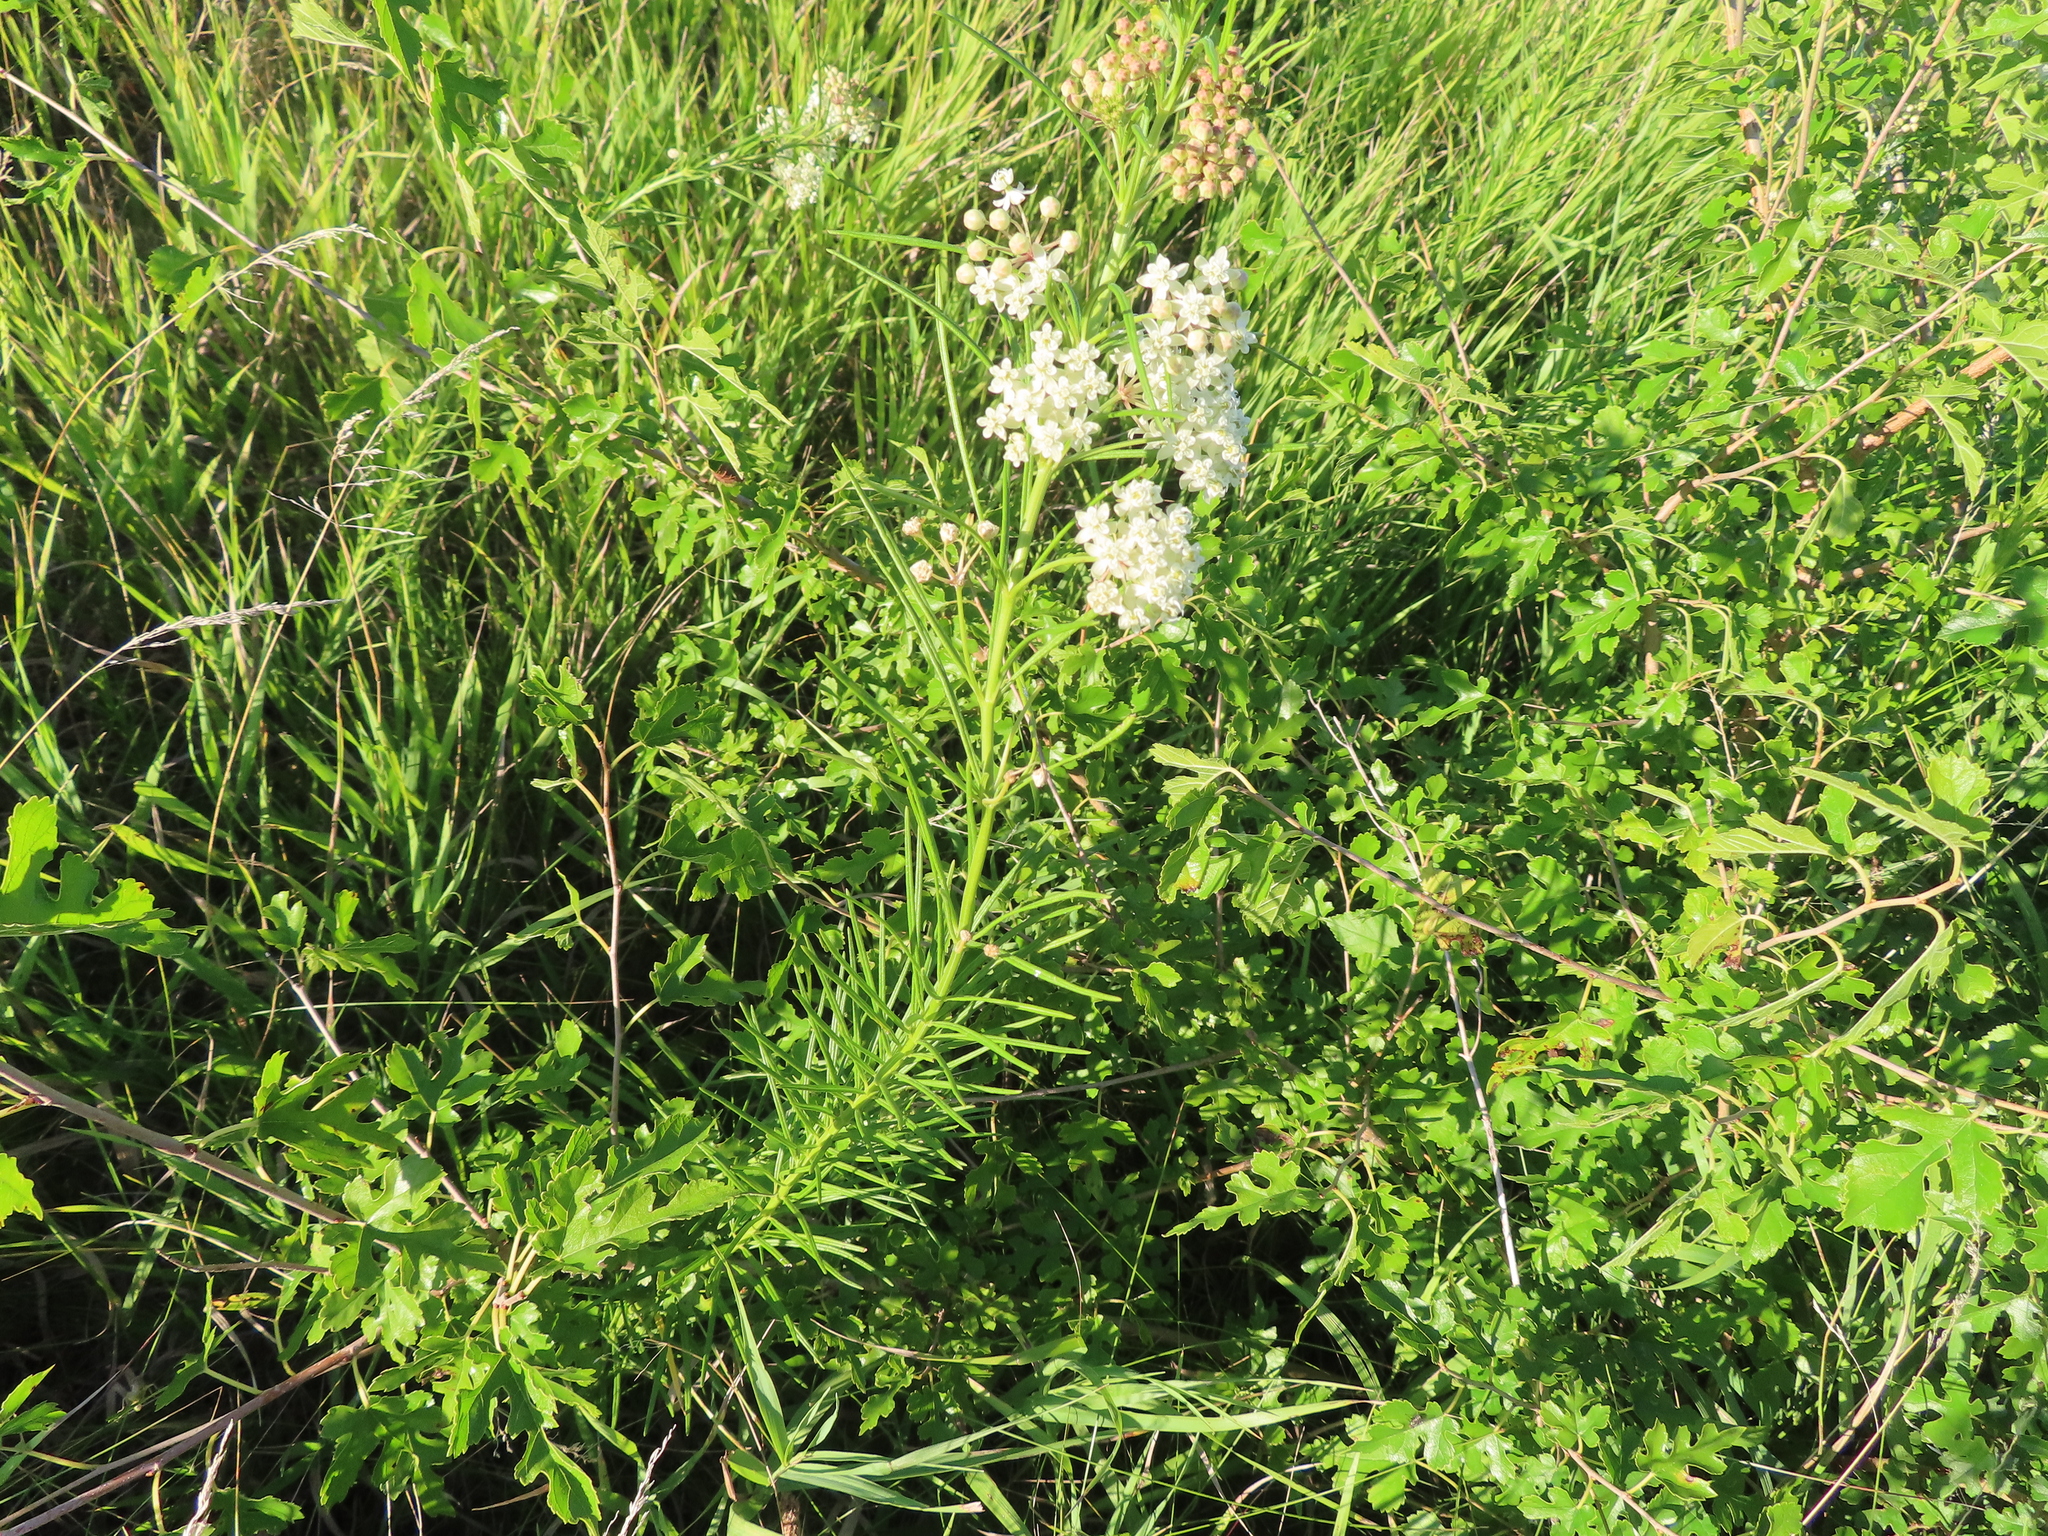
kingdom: Plantae
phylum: Tracheophyta
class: Magnoliopsida
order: Gentianales
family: Apocynaceae
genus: Asclepias
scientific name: Asclepias verticillata
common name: Eastern whorled milkweed
